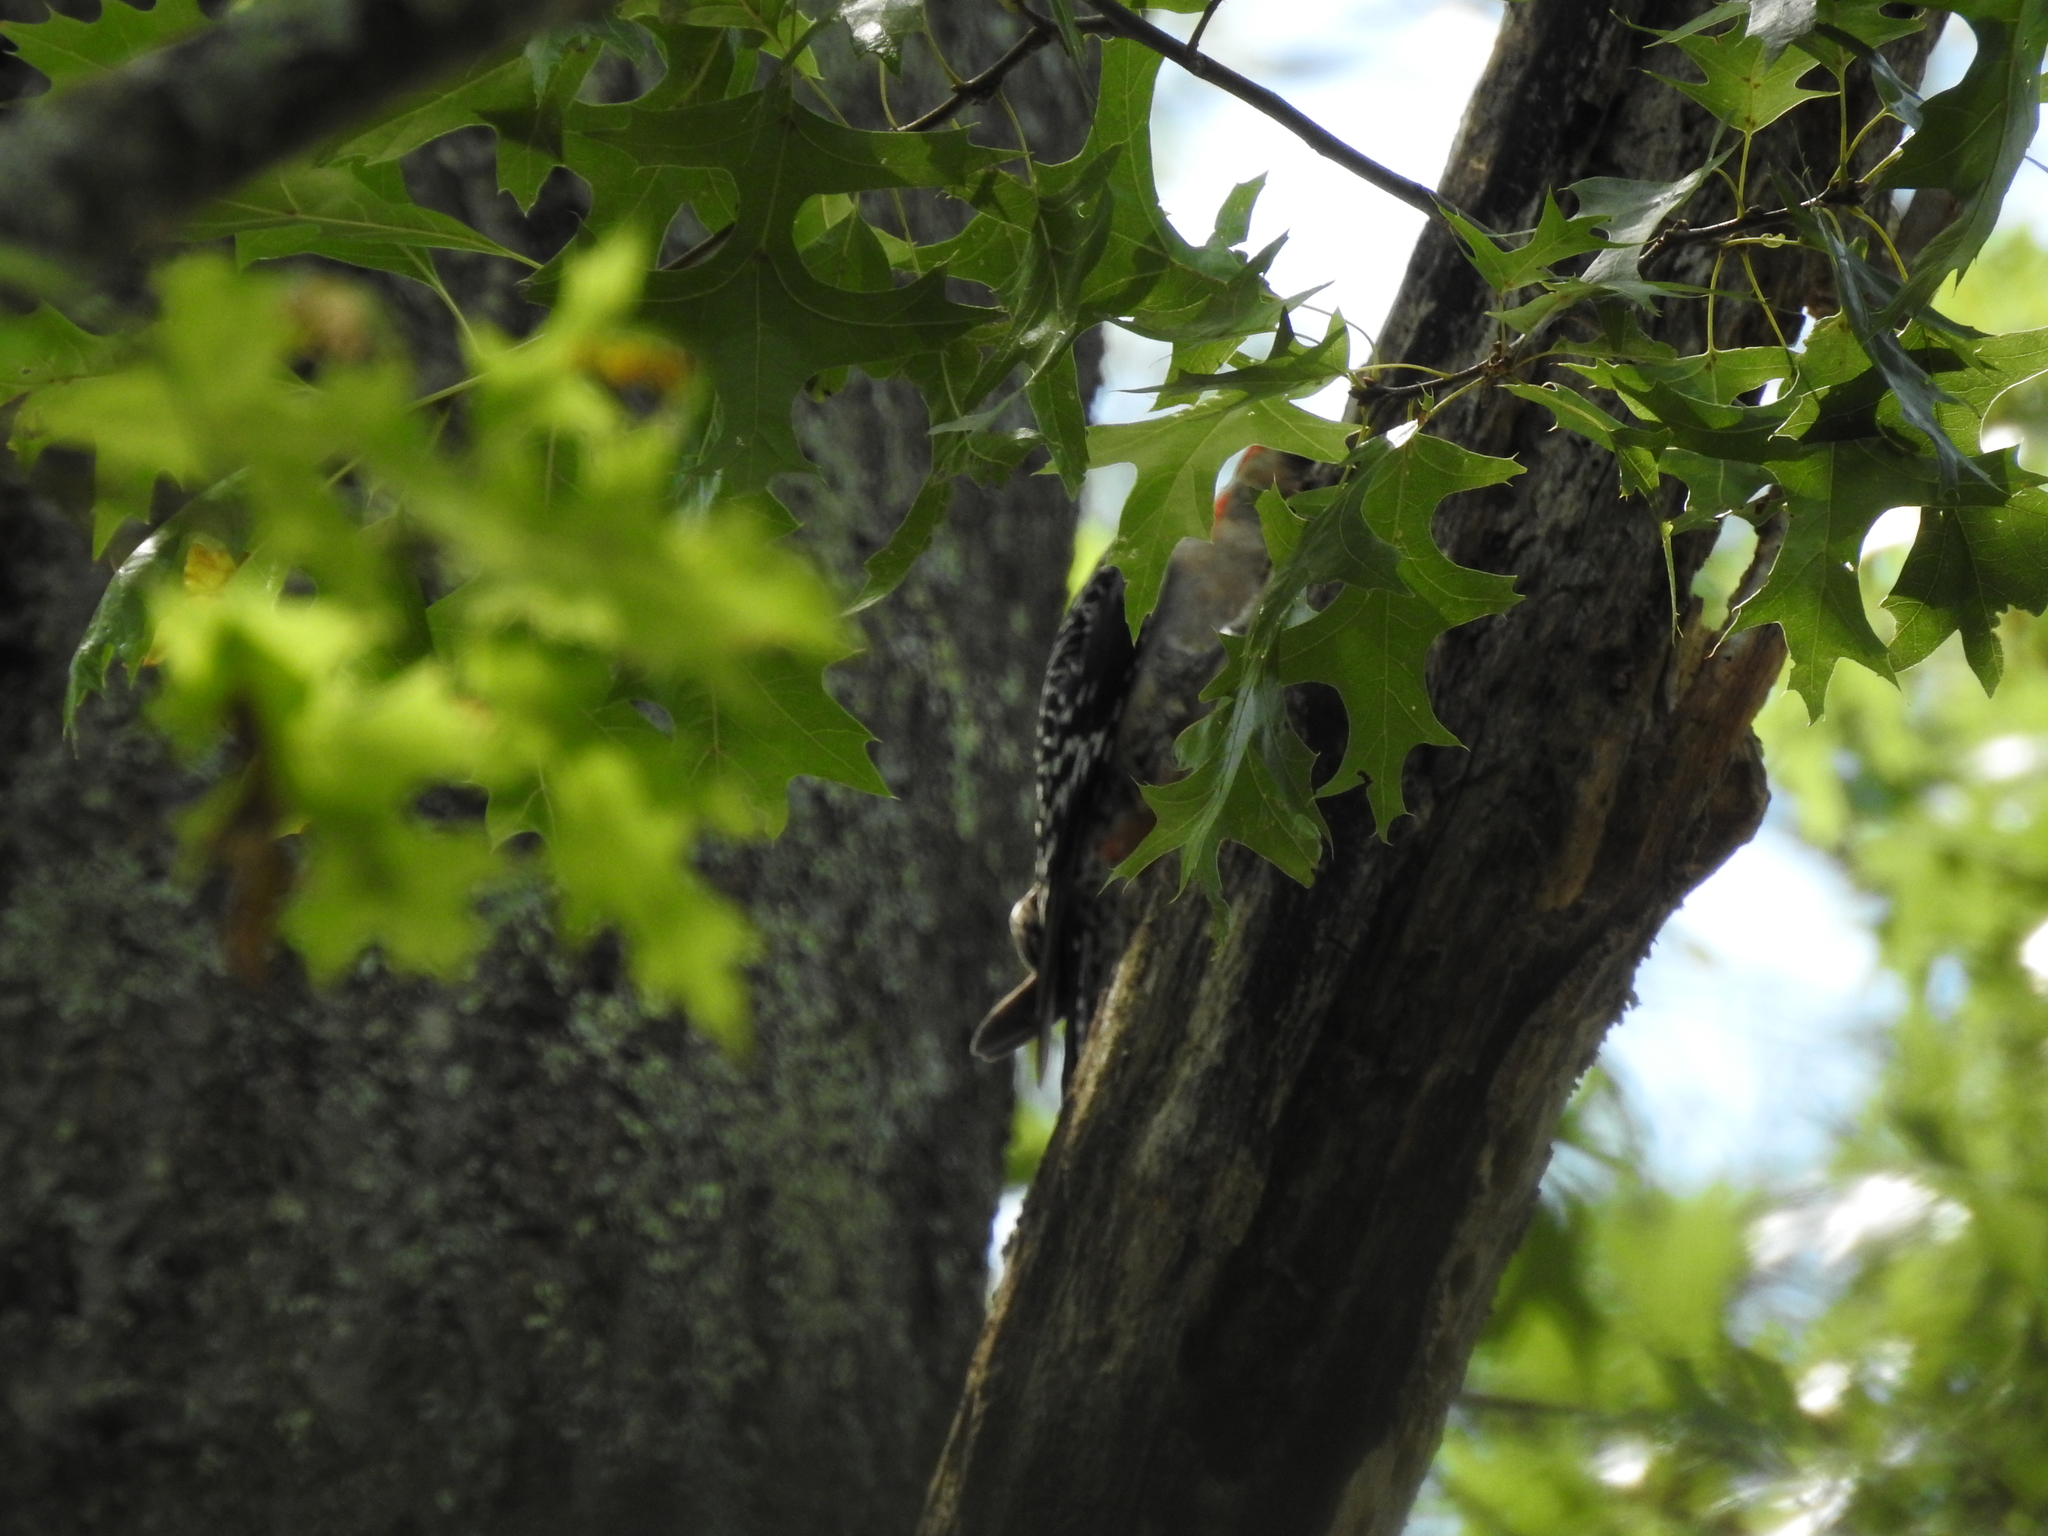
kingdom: Animalia
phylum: Chordata
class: Aves
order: Piciformes
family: Picidae
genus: Melanerpes
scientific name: Melanerpes carolinus
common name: Red-bellied woodpecker
